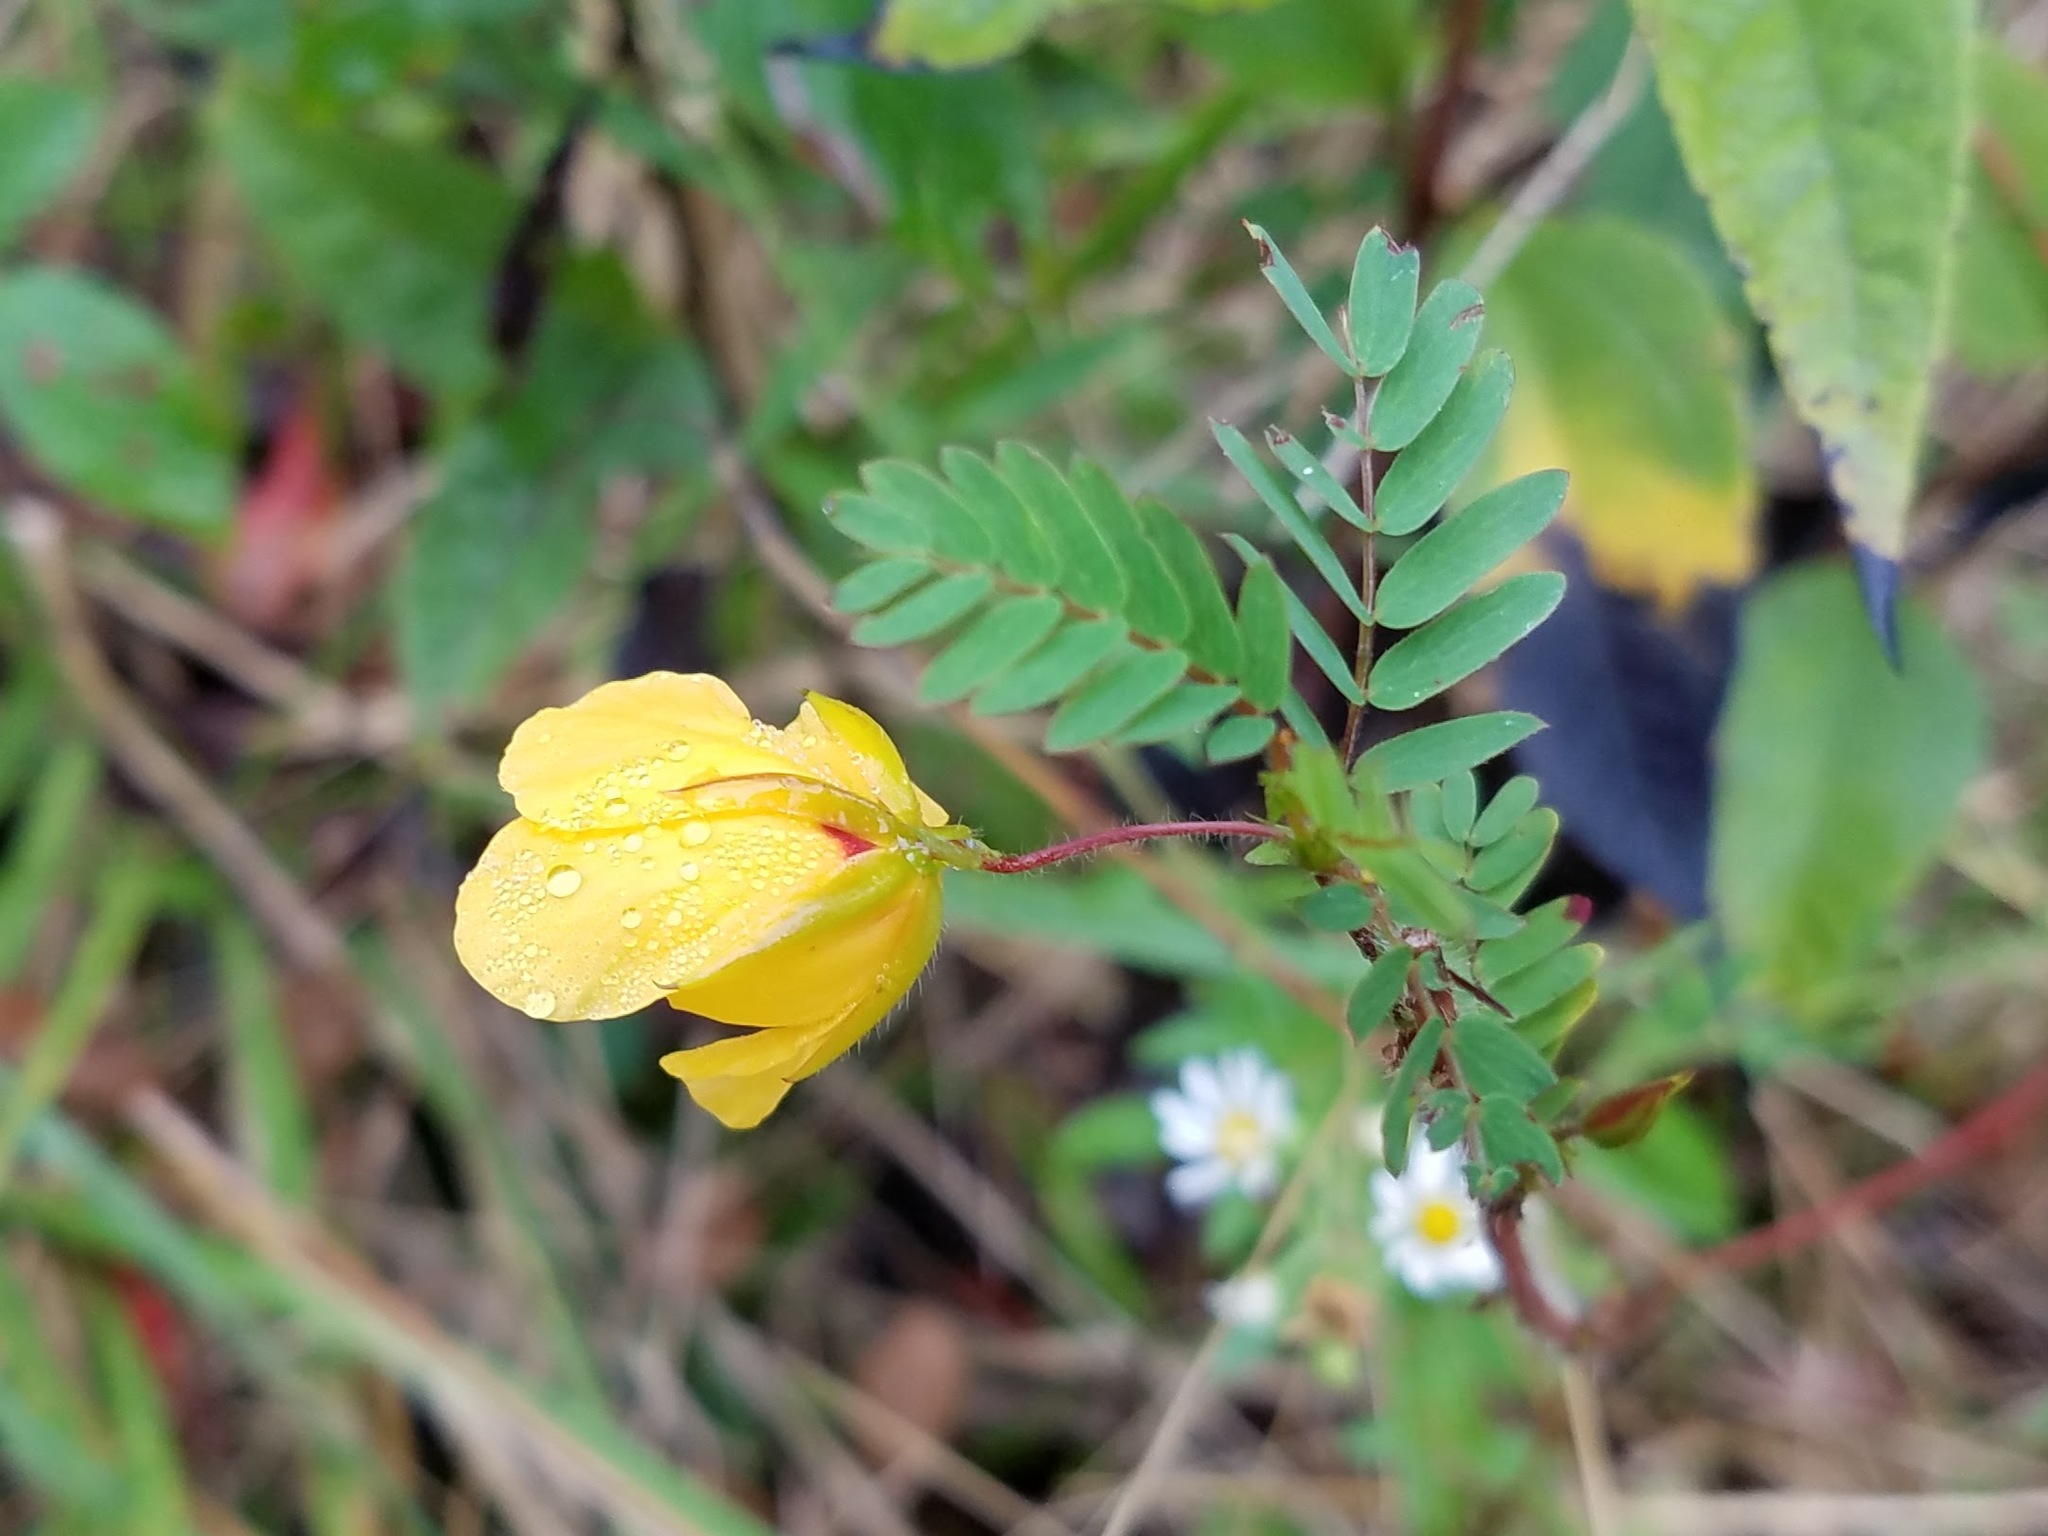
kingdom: Plantae
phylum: Tracheophyta
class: Magnoliopsida
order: Fabales
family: Fabaceae
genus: Chamaecrista
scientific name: Chamaecrista fasciculata
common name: Golden cassia
